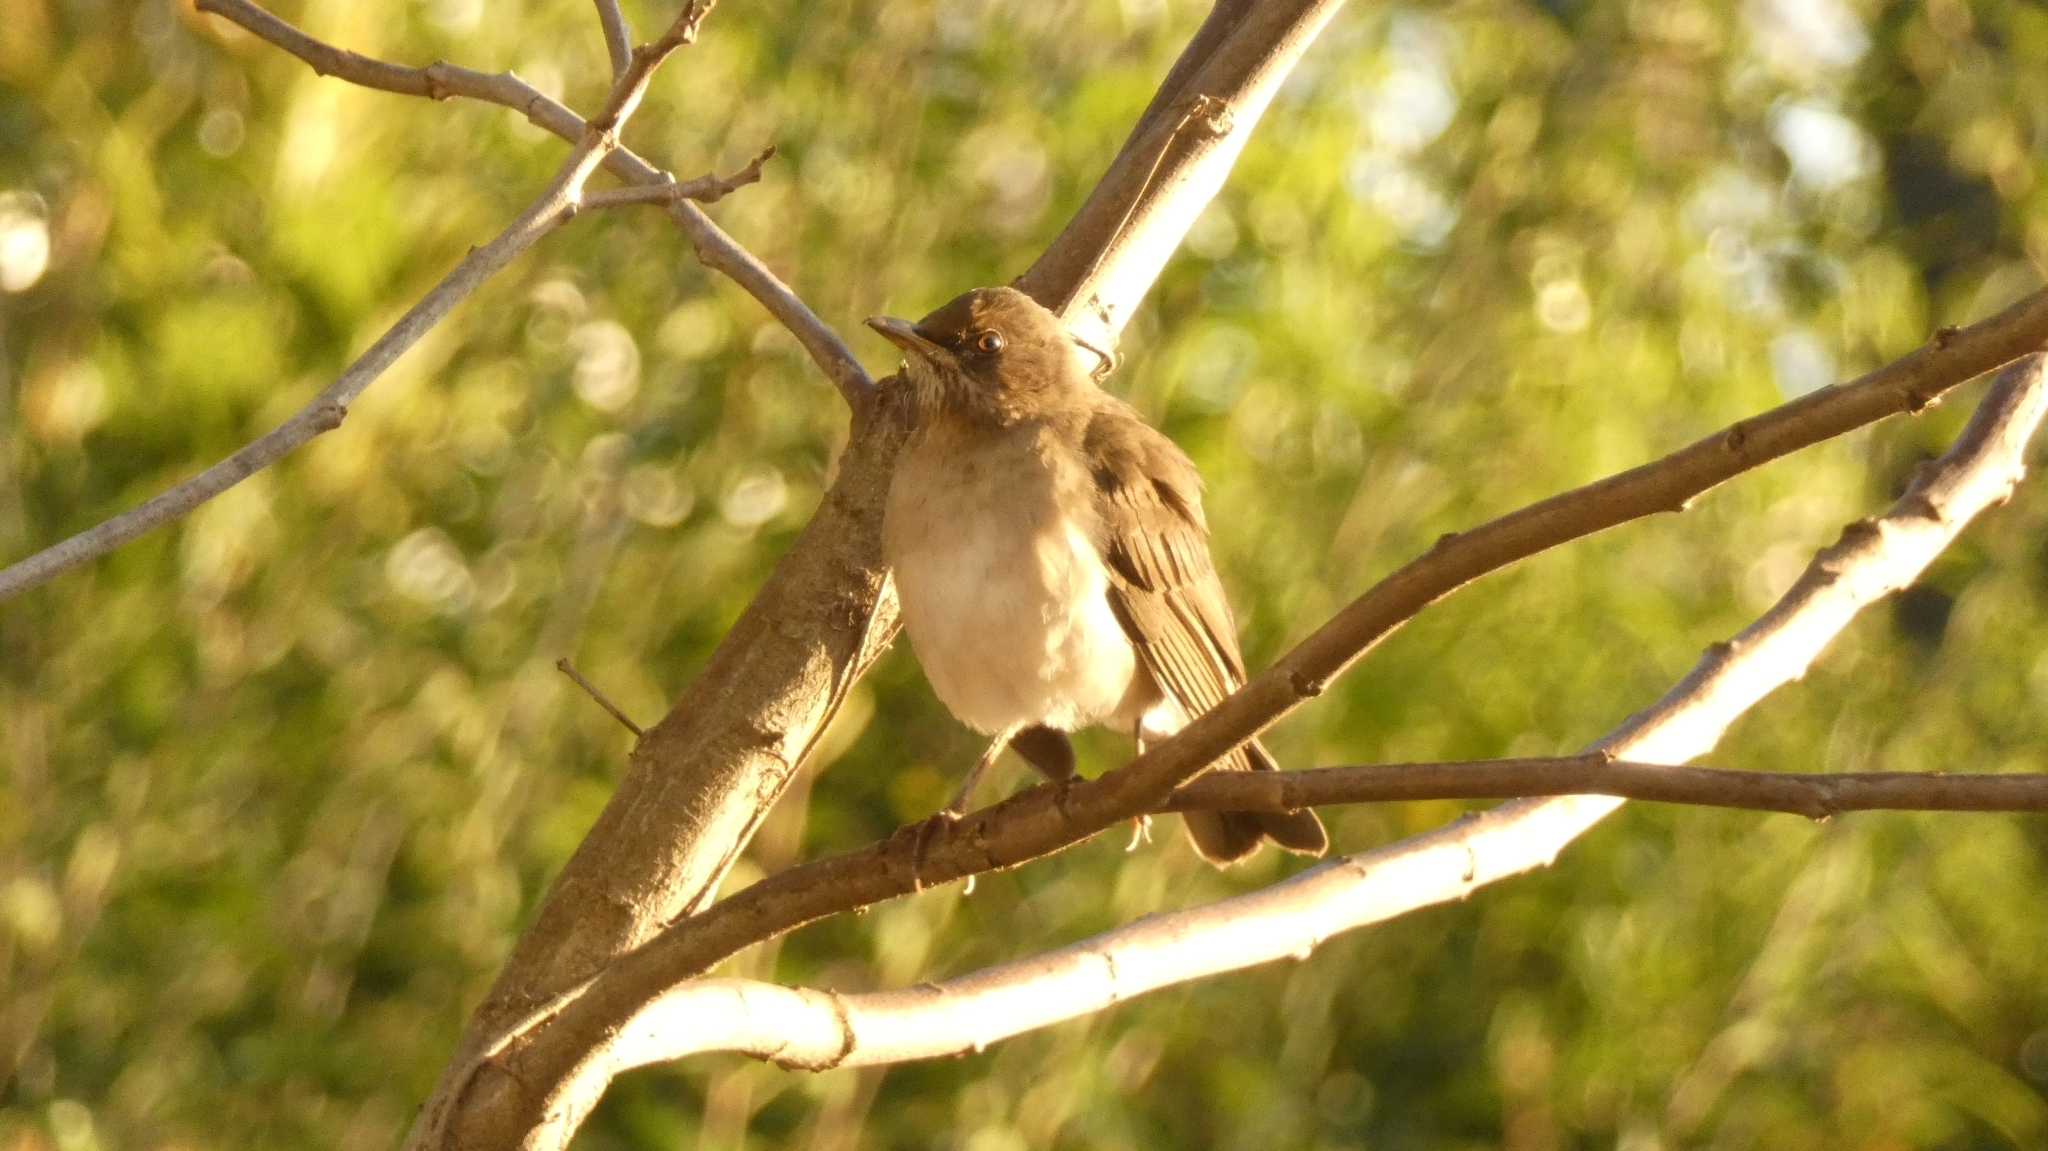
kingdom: Animalia
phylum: Chordata
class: Aves
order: Passeriformes
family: Turdidae
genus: Turdus
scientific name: Turdus amaurochalinus
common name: Creamy-bellied thrush
